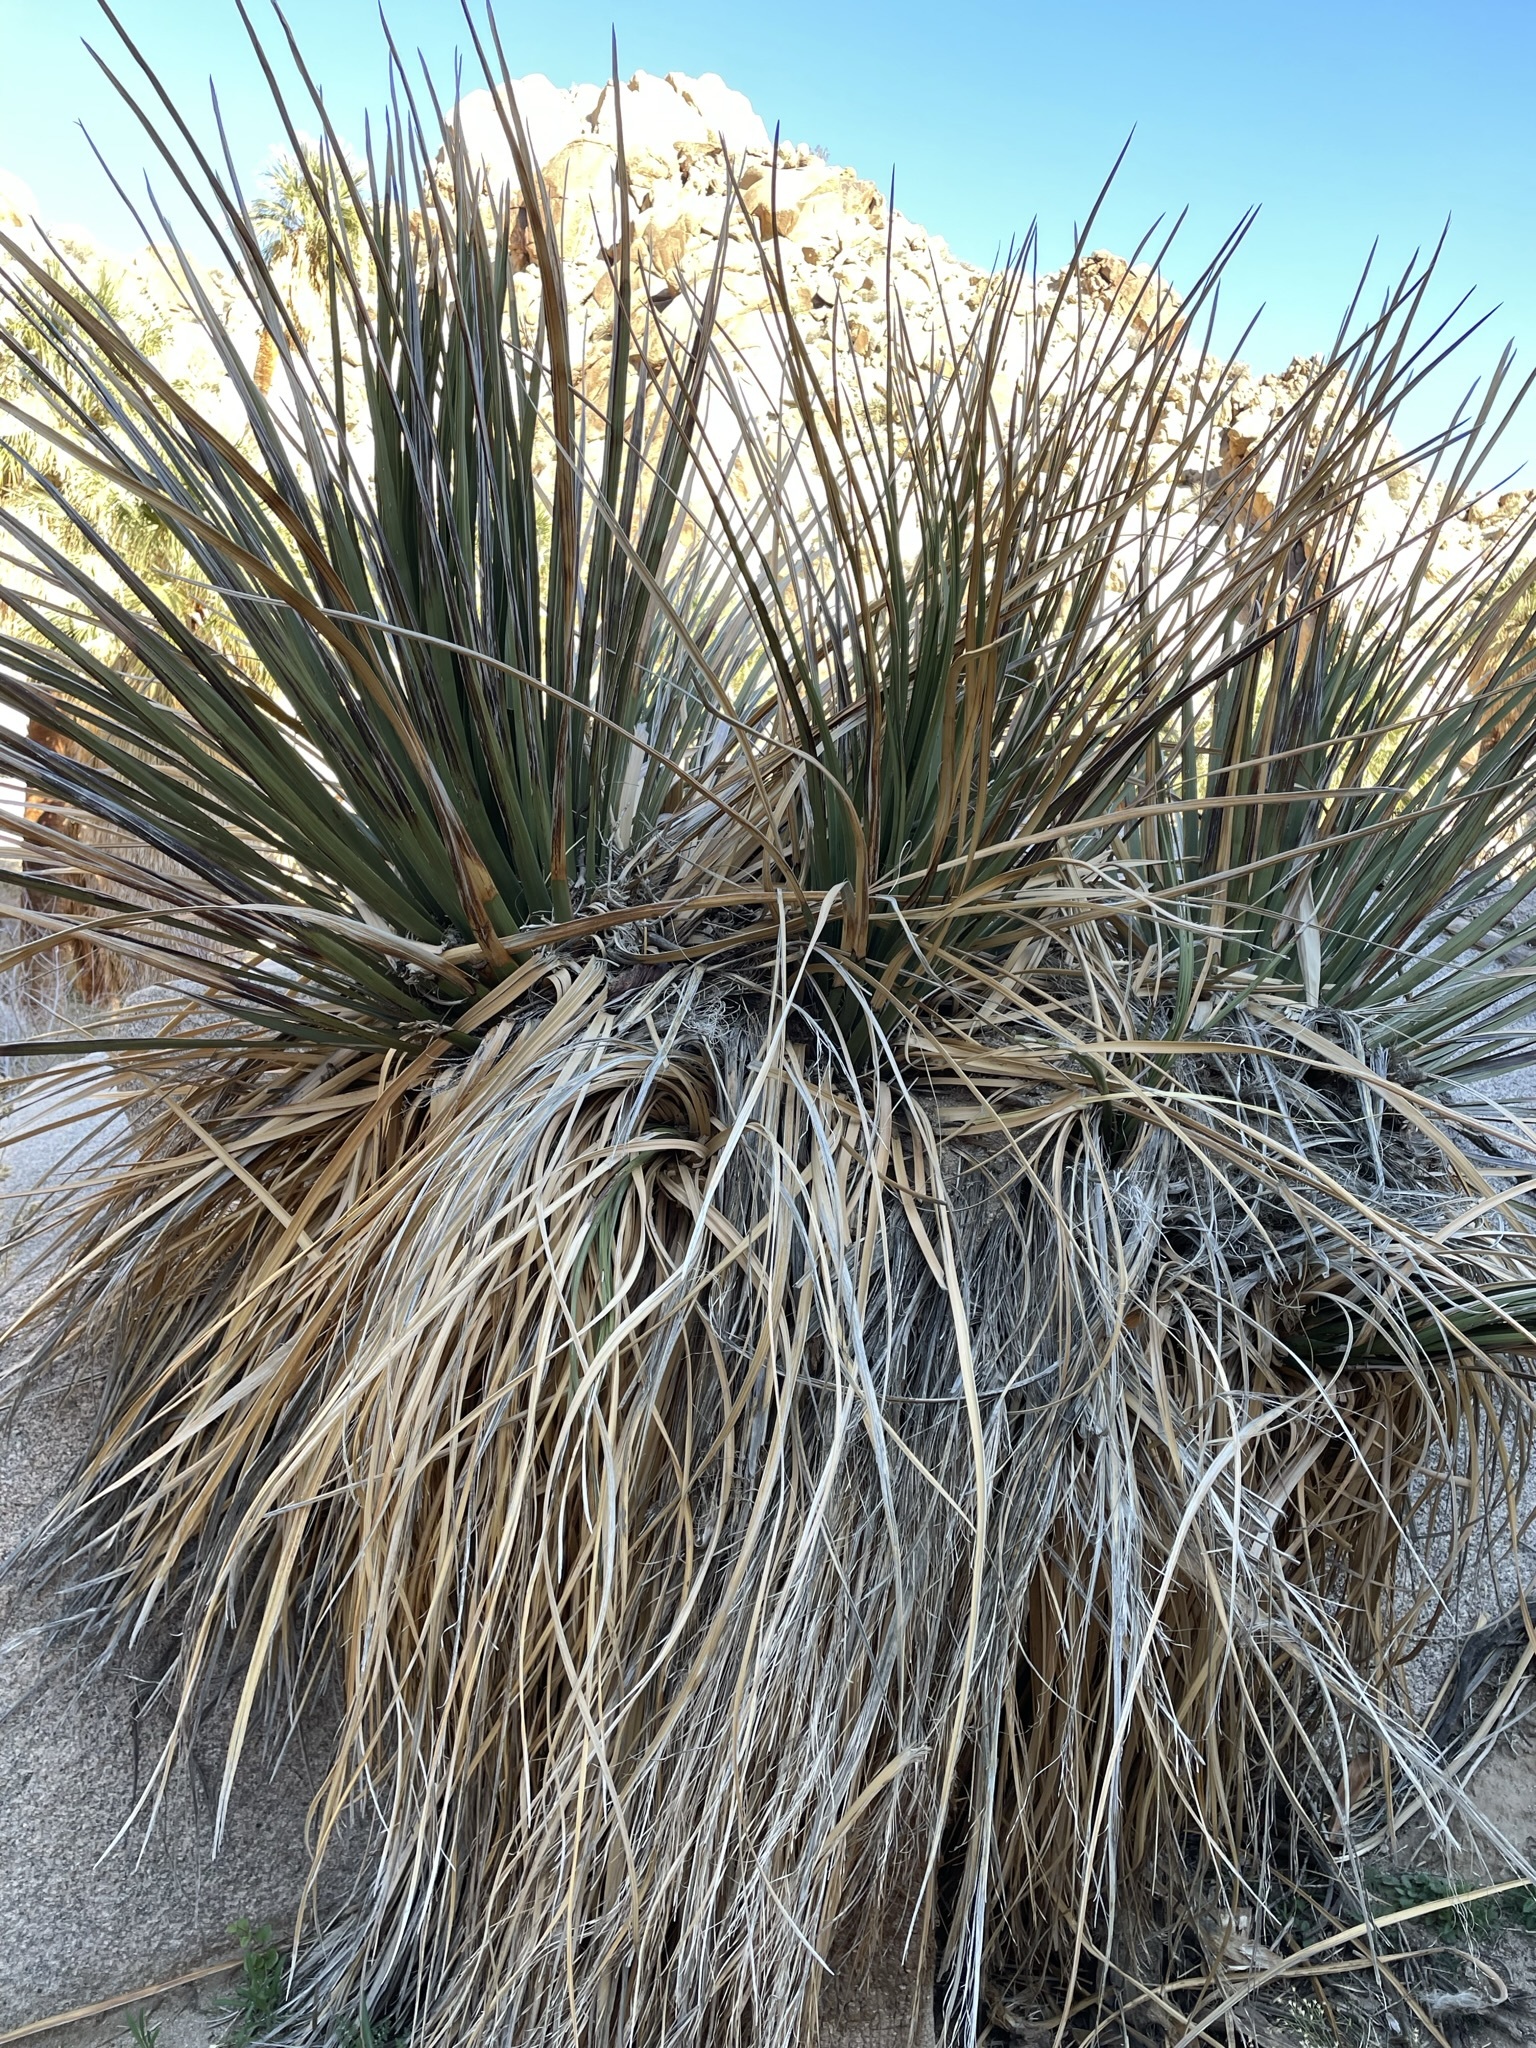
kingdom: Plantae
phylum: Tracheophyta
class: Liliopsida
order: Asparagales
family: Asparagaceae
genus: Nolina
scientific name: Nolina bigelovii
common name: Bigelow bear-grass
